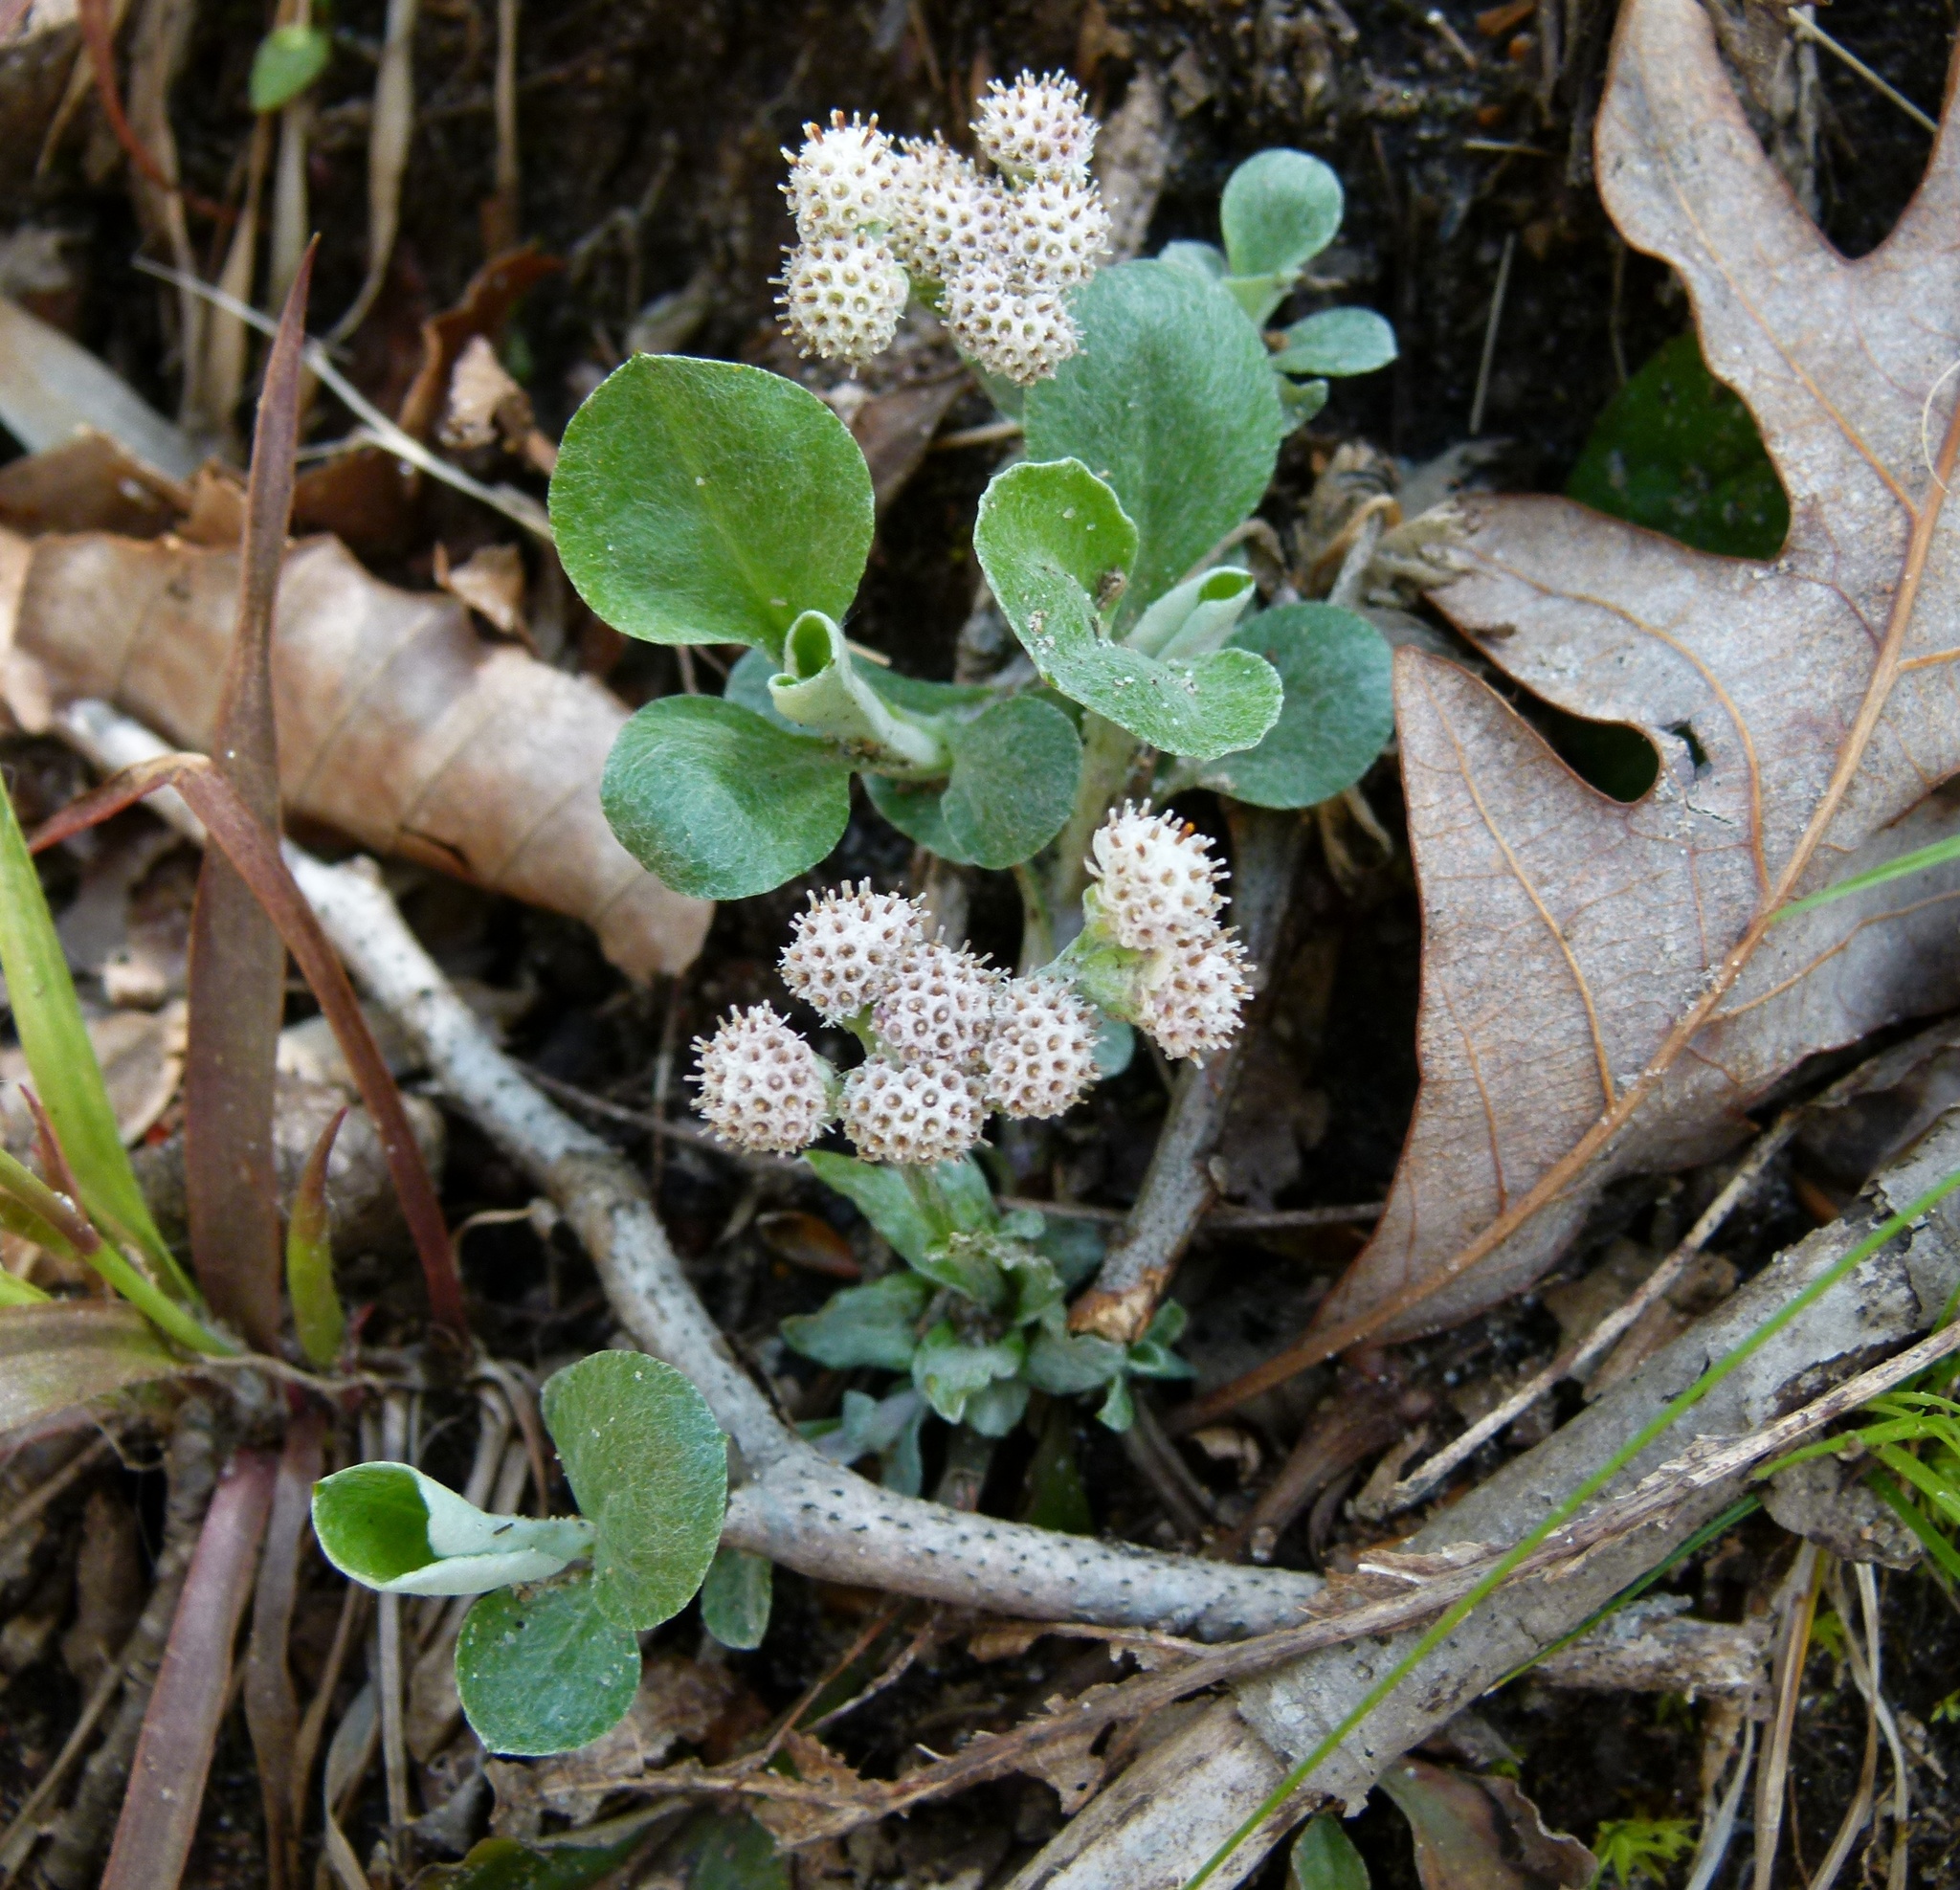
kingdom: Plantae
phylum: Tracheophyta
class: Magnoliopsida
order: Asterales
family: Asteraceae
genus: Antennaria
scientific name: Antennaria plantaginifolia
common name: Plantain-leaved pussytoes
